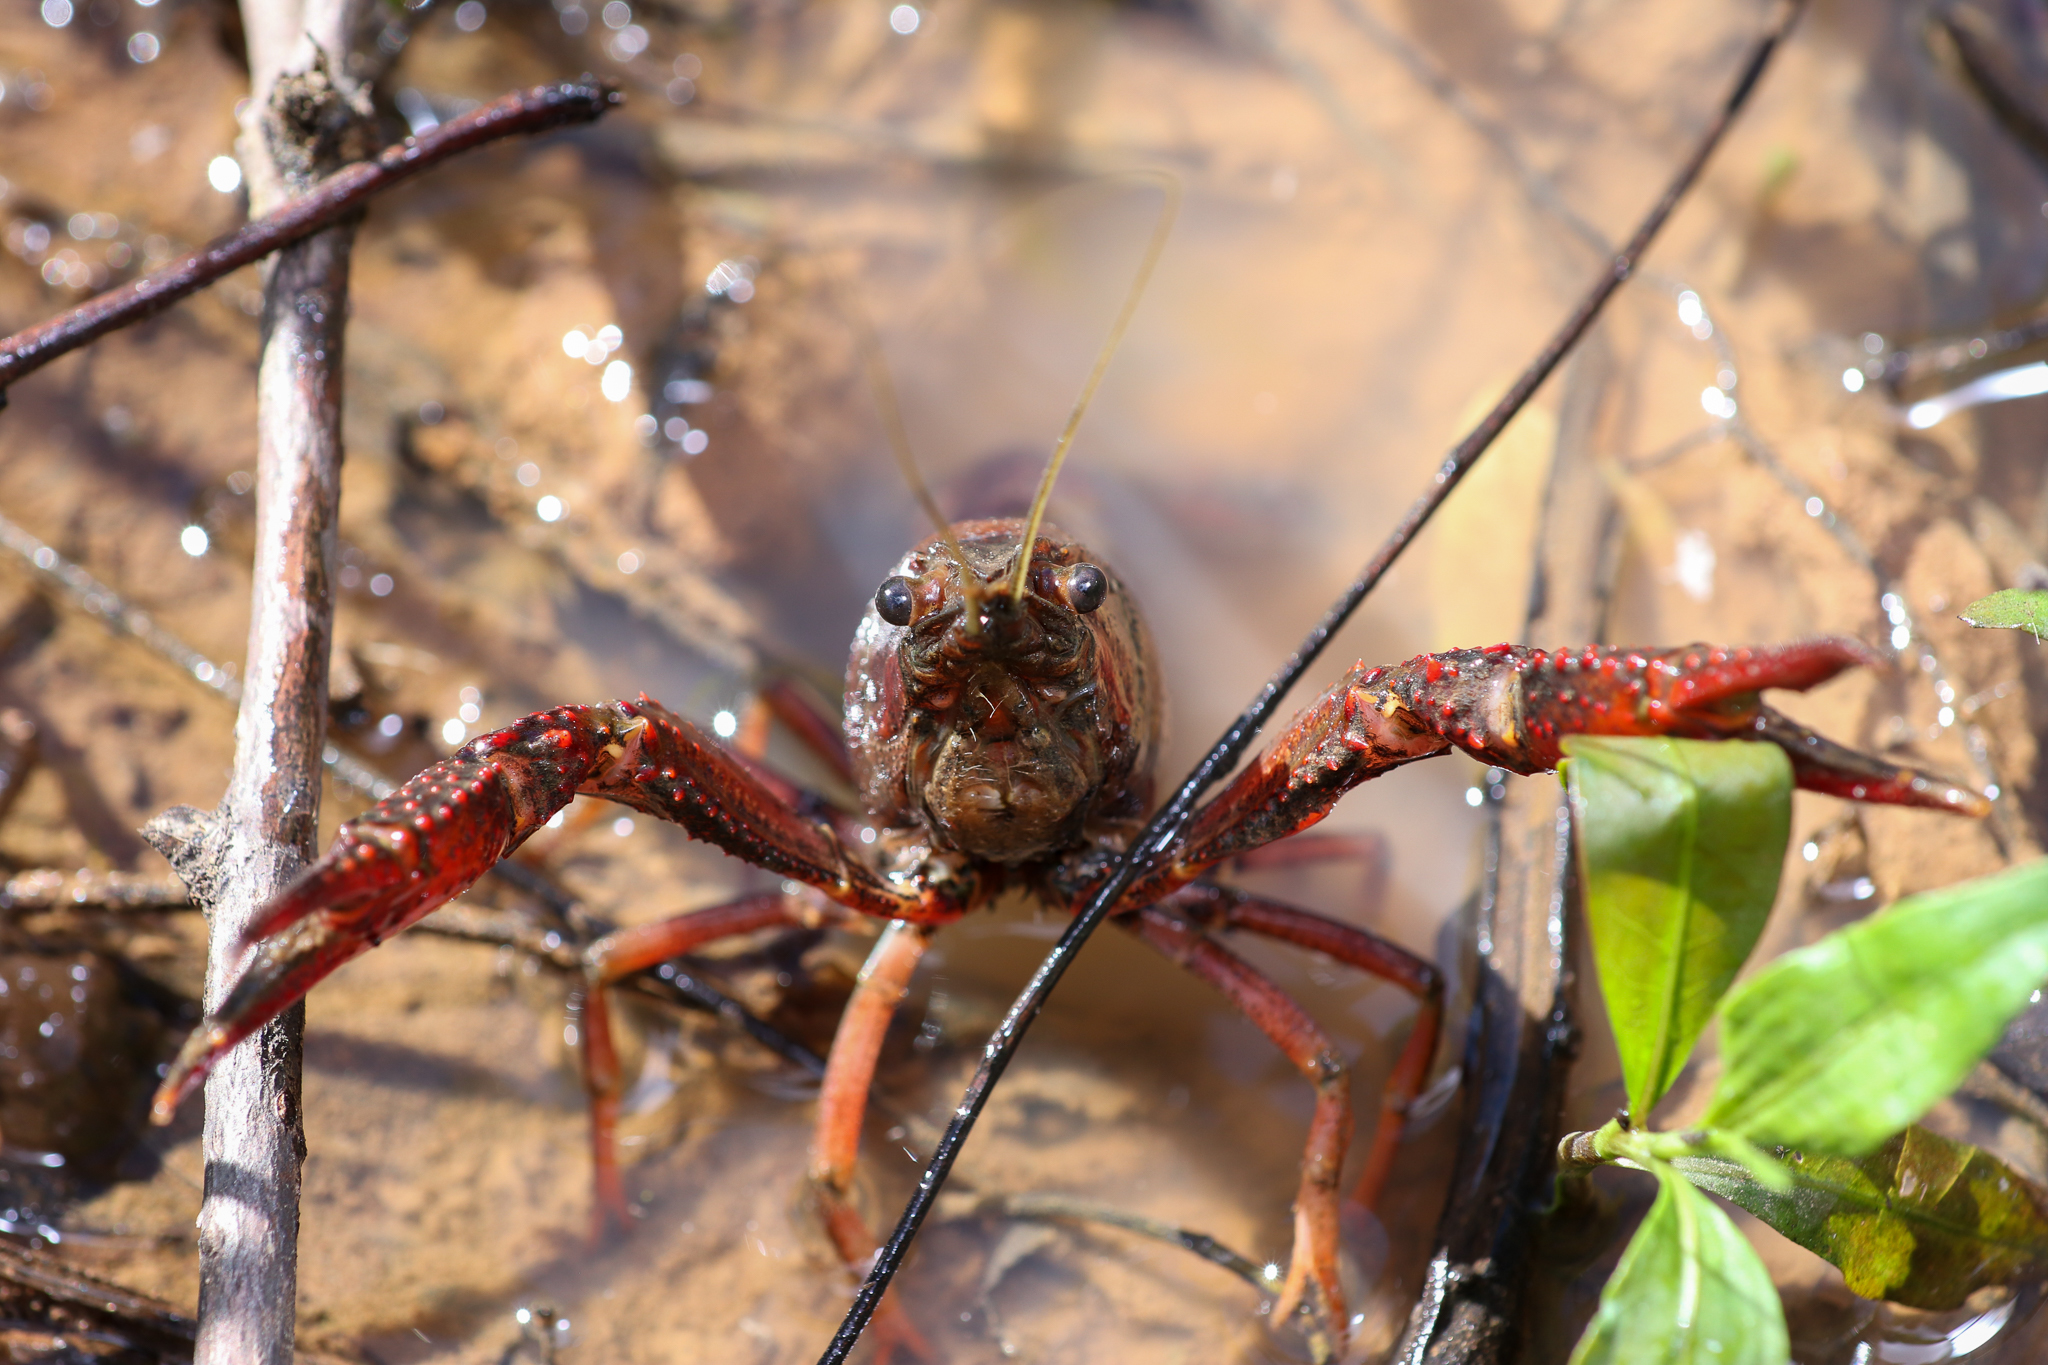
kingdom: Animalia
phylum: Arthropoda
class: Malacostraca
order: Decapoda
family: Cambaridae
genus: Procambarus
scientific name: Procambarus clarkii
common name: Red swamp crayfish
